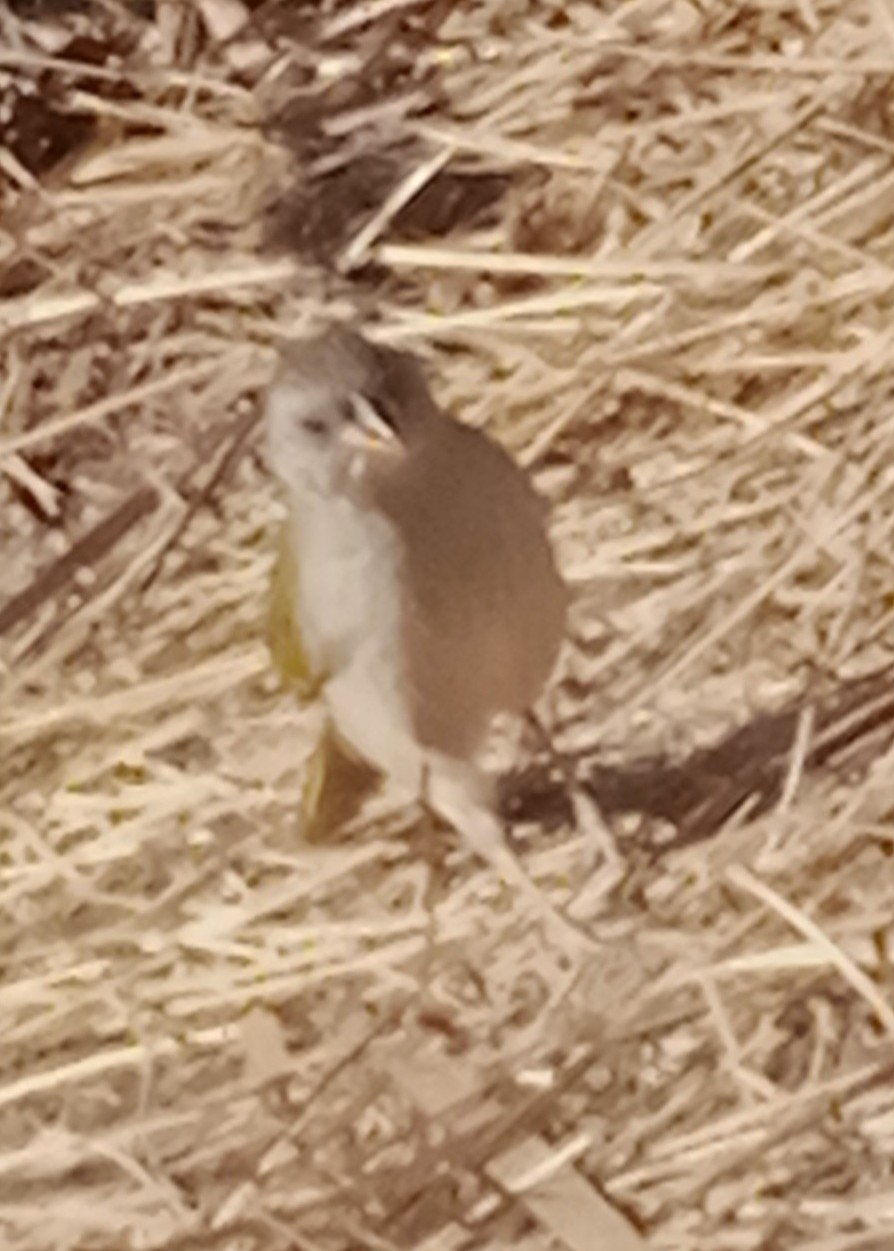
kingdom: Animalia
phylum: Chordata
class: Aves
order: Passeriformes
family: Thraupidae
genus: Embernagra
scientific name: Embernagra platensis
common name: Pampa finch
